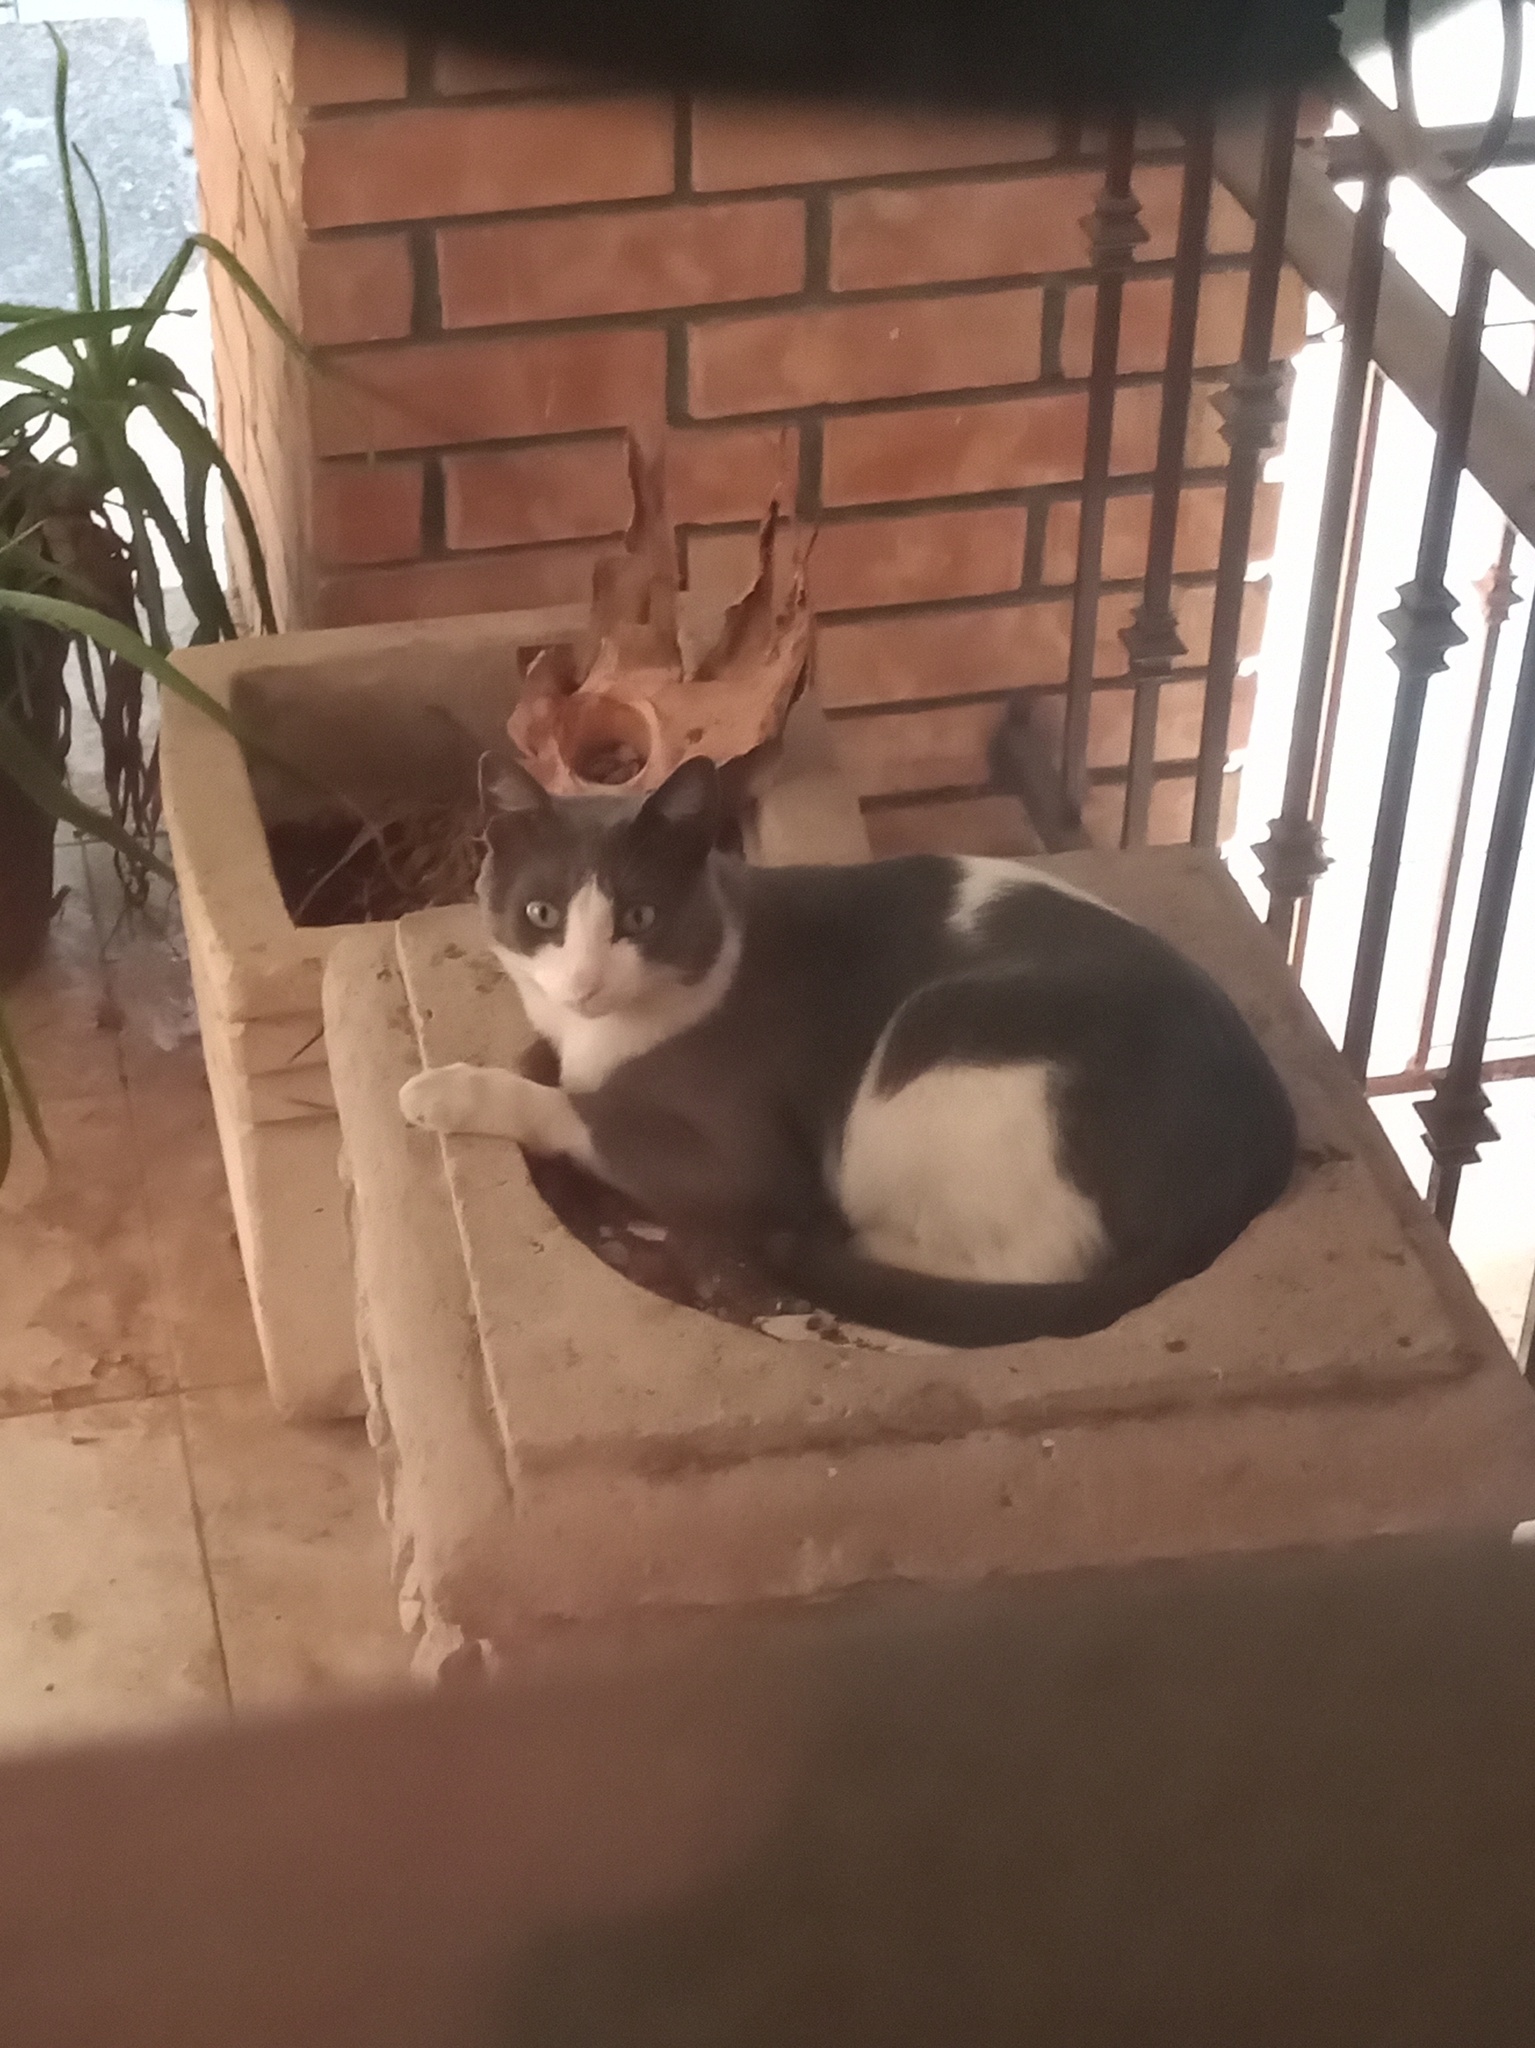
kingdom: Animalia
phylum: Chordata
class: Mammalia
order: Carnivora
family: Felidae
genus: Felis
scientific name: Felis catus
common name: Domestic cat
